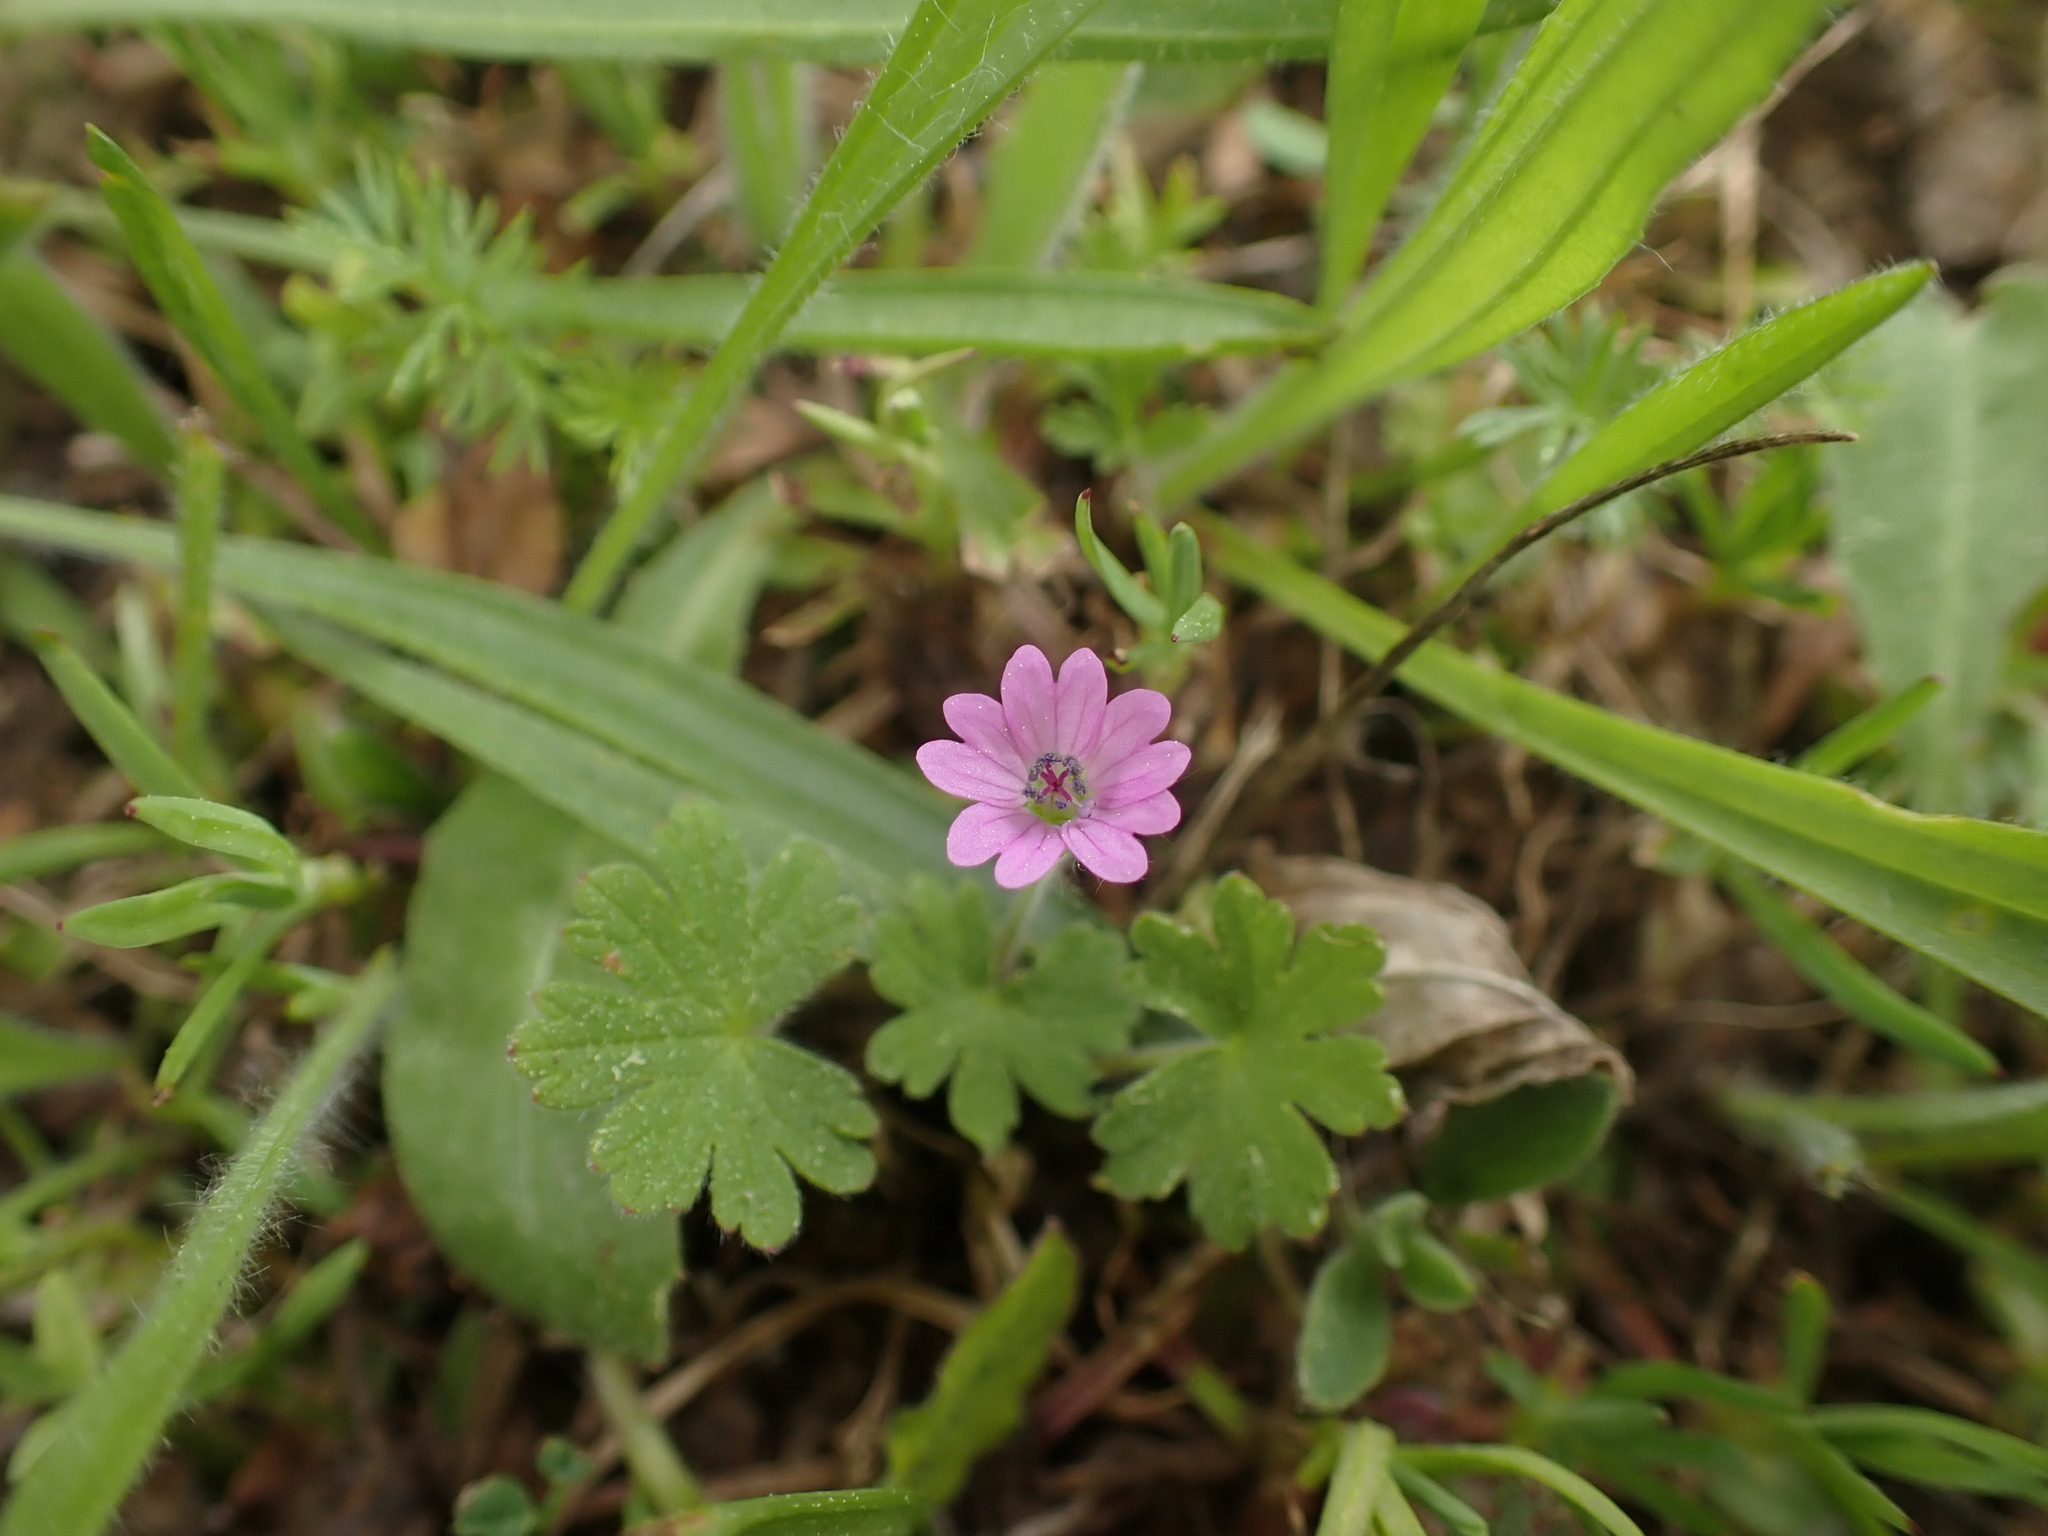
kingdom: Plantae
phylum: Tracheophyta
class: Magnoliopsida
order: Geraniales
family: Geraniaceae
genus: Geranium
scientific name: Geranium molle
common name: Dove's-foot crane's-bill
